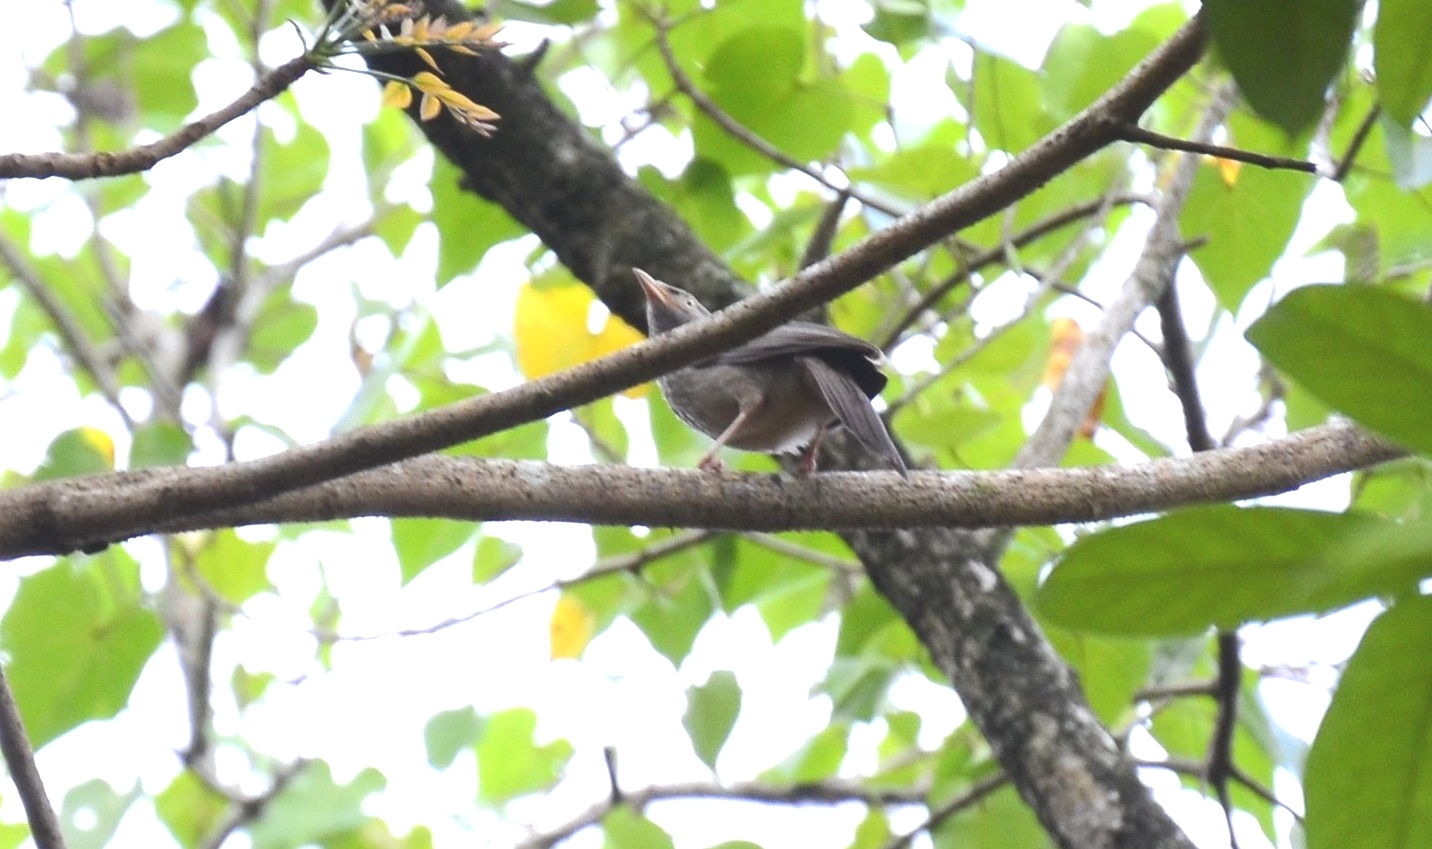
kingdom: Animalia
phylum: Chordata
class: Aves
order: Passeriformes
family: Leiothrichidae
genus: Turdoides
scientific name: Turdoides striata
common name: Jungle babbler
